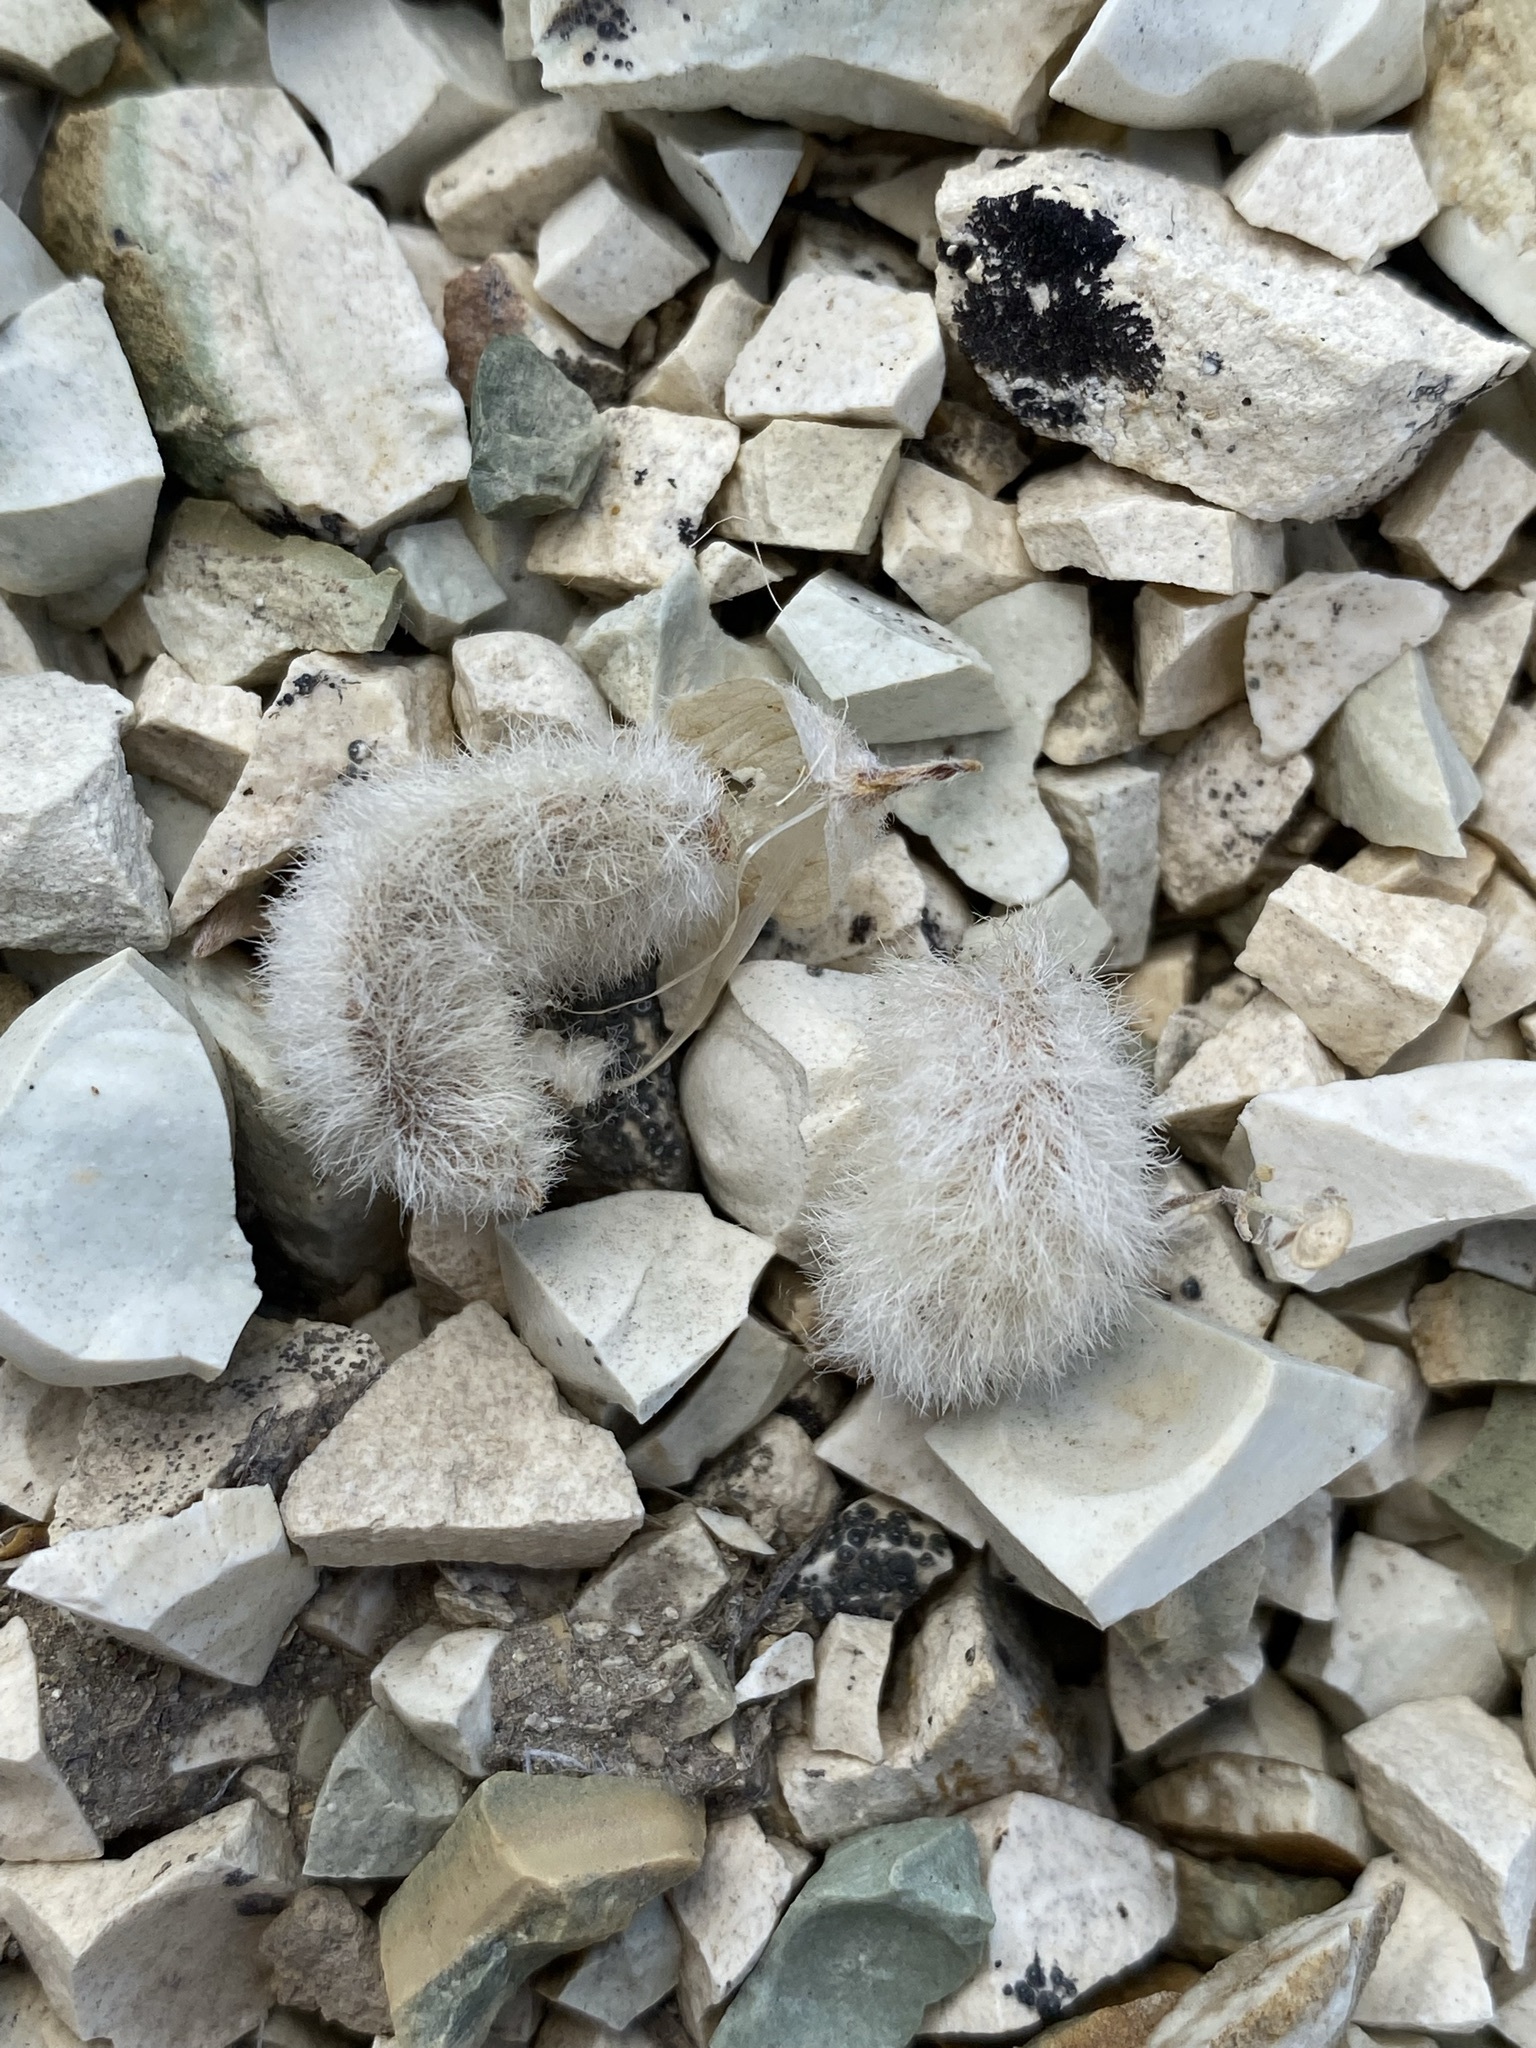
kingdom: Plantae
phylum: Tracheophyta
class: Magnoliopsida
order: Fabales
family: Fabaceae
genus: Astragalus
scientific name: Astragalus purshii
